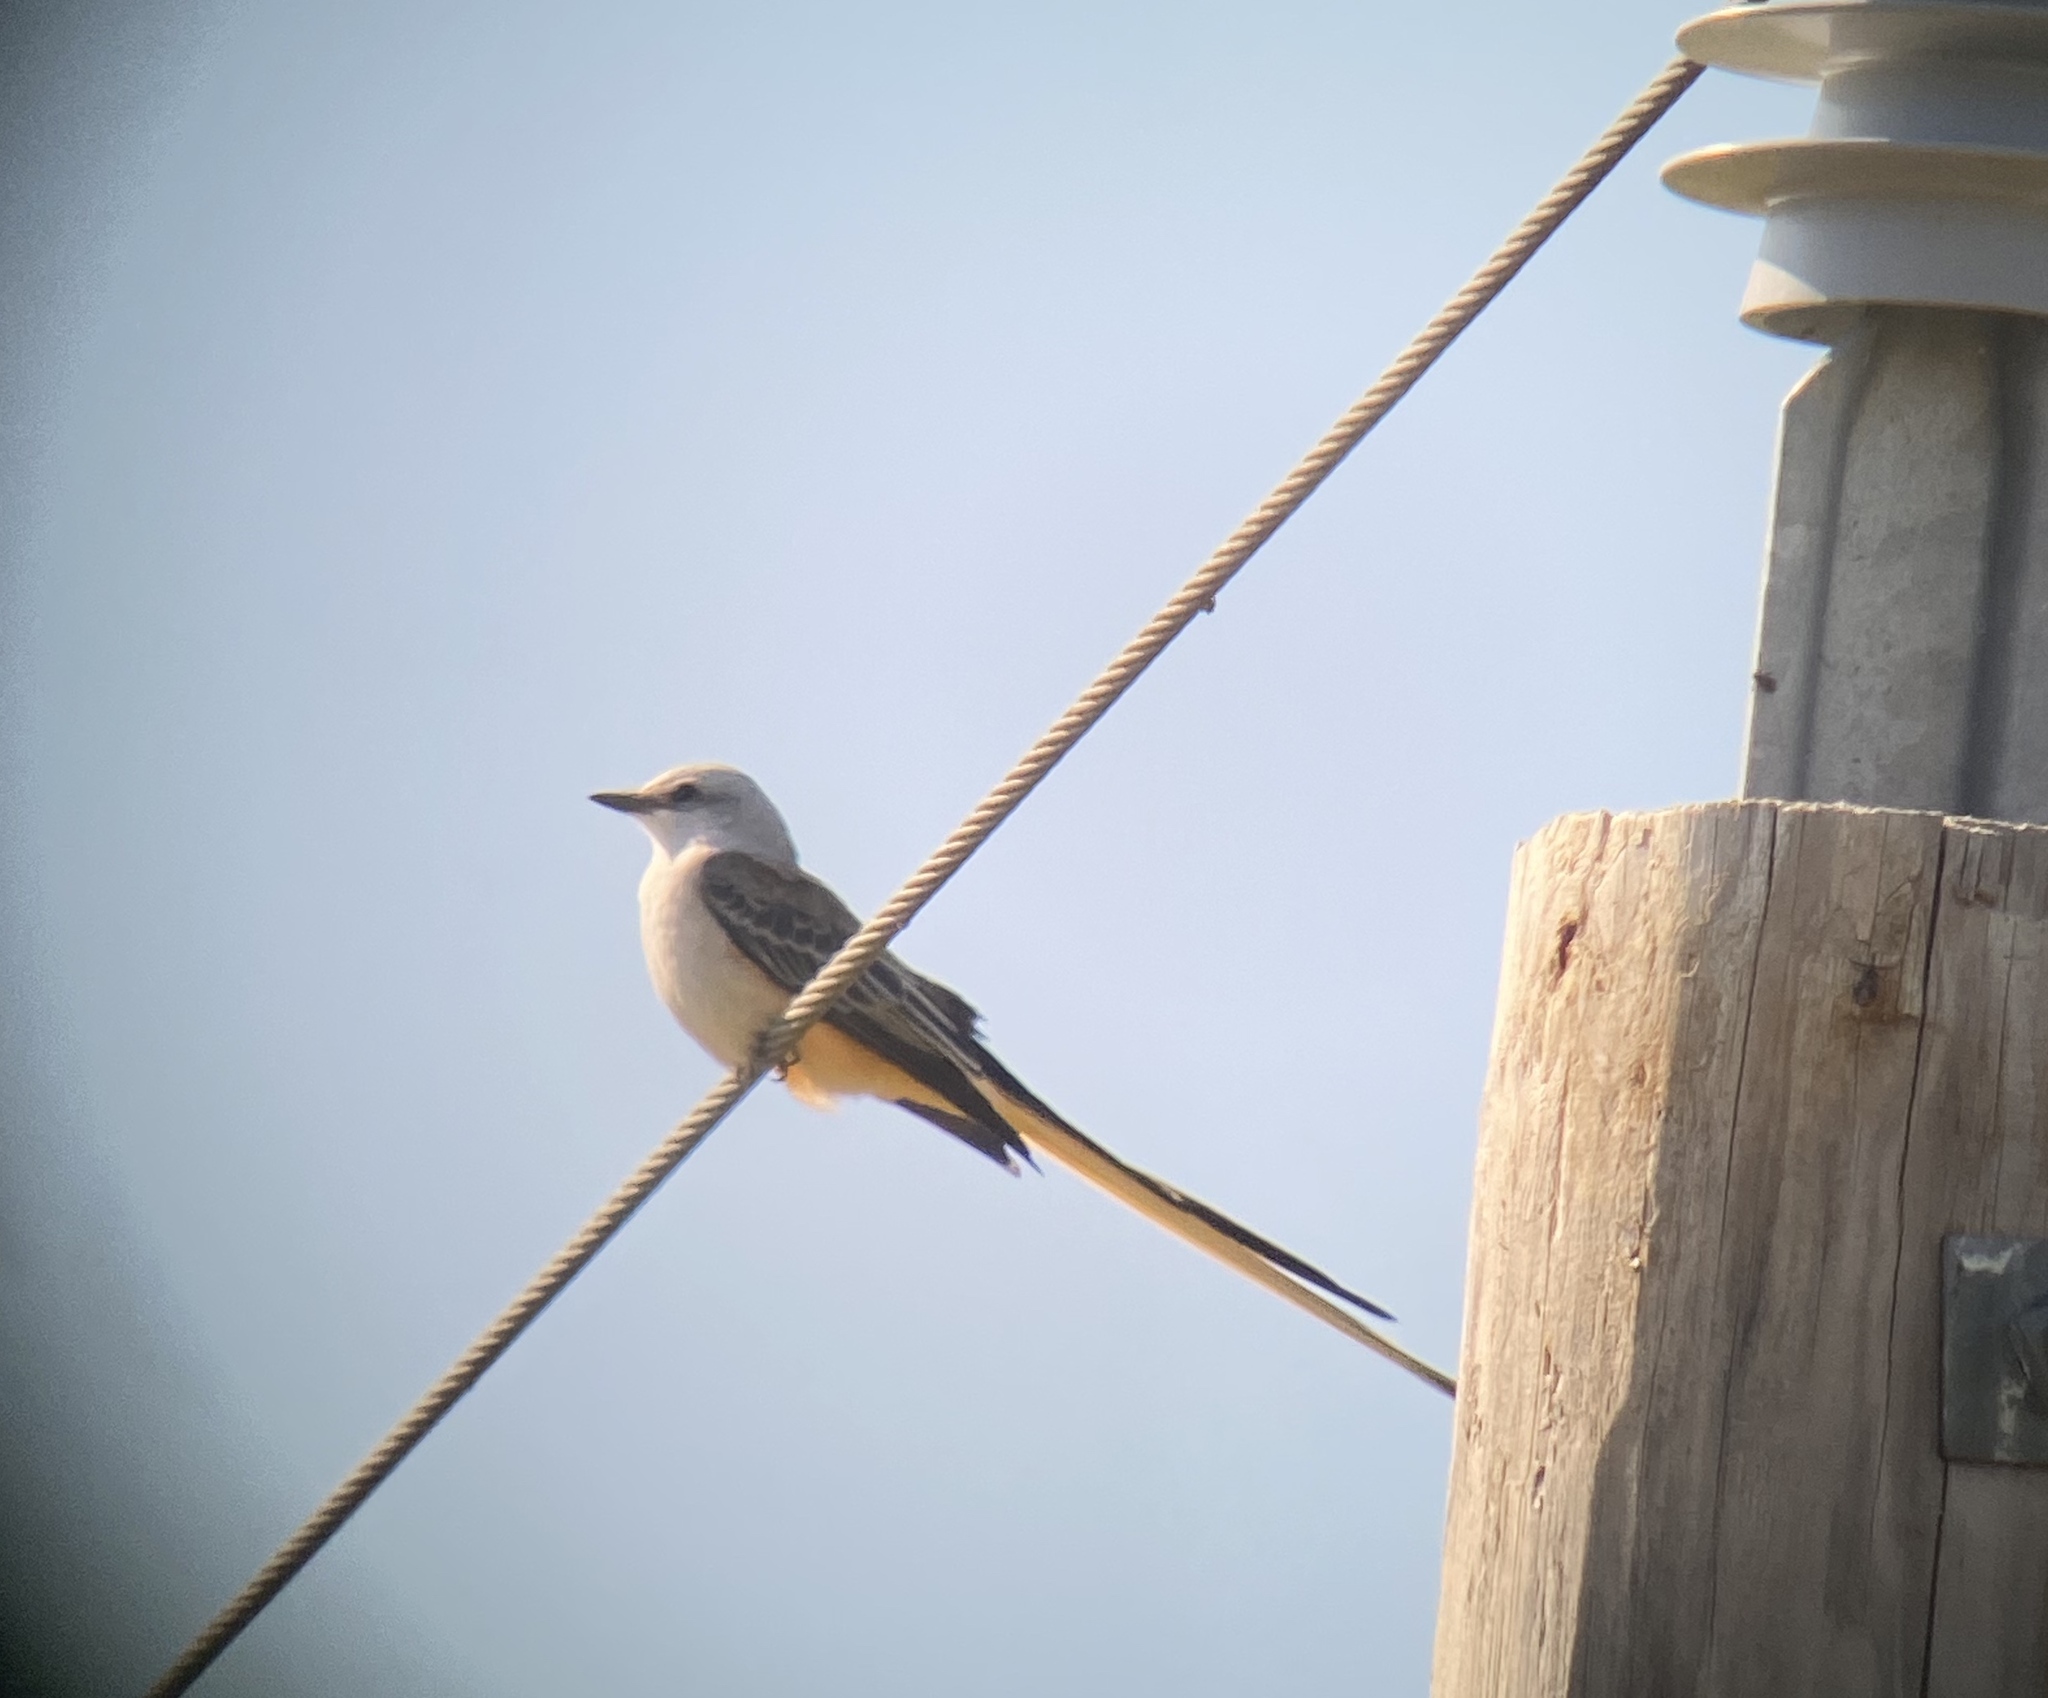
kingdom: Animalia
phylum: Chordata
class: Aves
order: Passeriformes
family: Tyrannidae
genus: Tyrannus
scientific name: Tyrannus forficatus
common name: Scissor-tailed flycatcher
